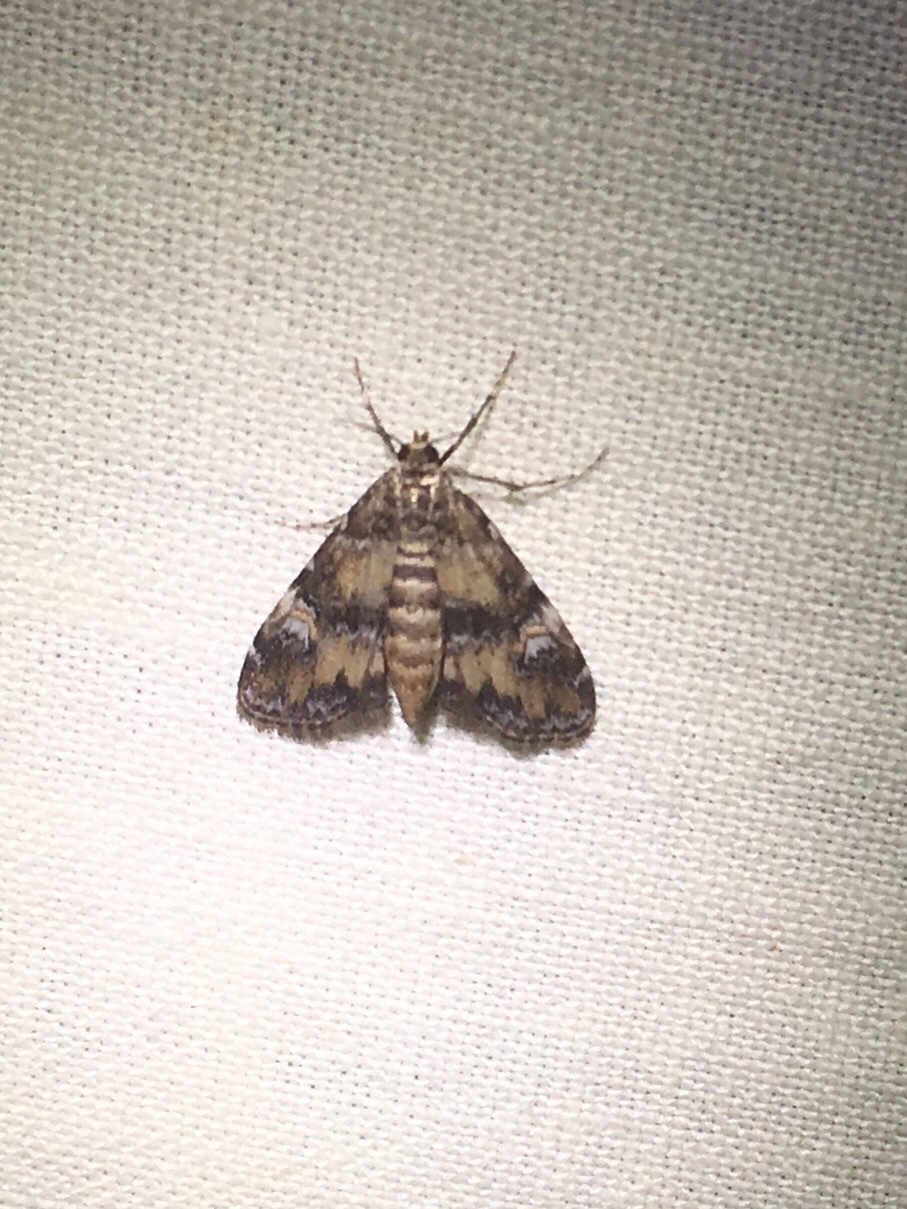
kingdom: Animalia
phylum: Arthropoda
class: Insecta
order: Lepidoptera
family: Crambidae
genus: Elophila
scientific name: Elophila obliteralis
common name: Waterlily leafcutter moth
